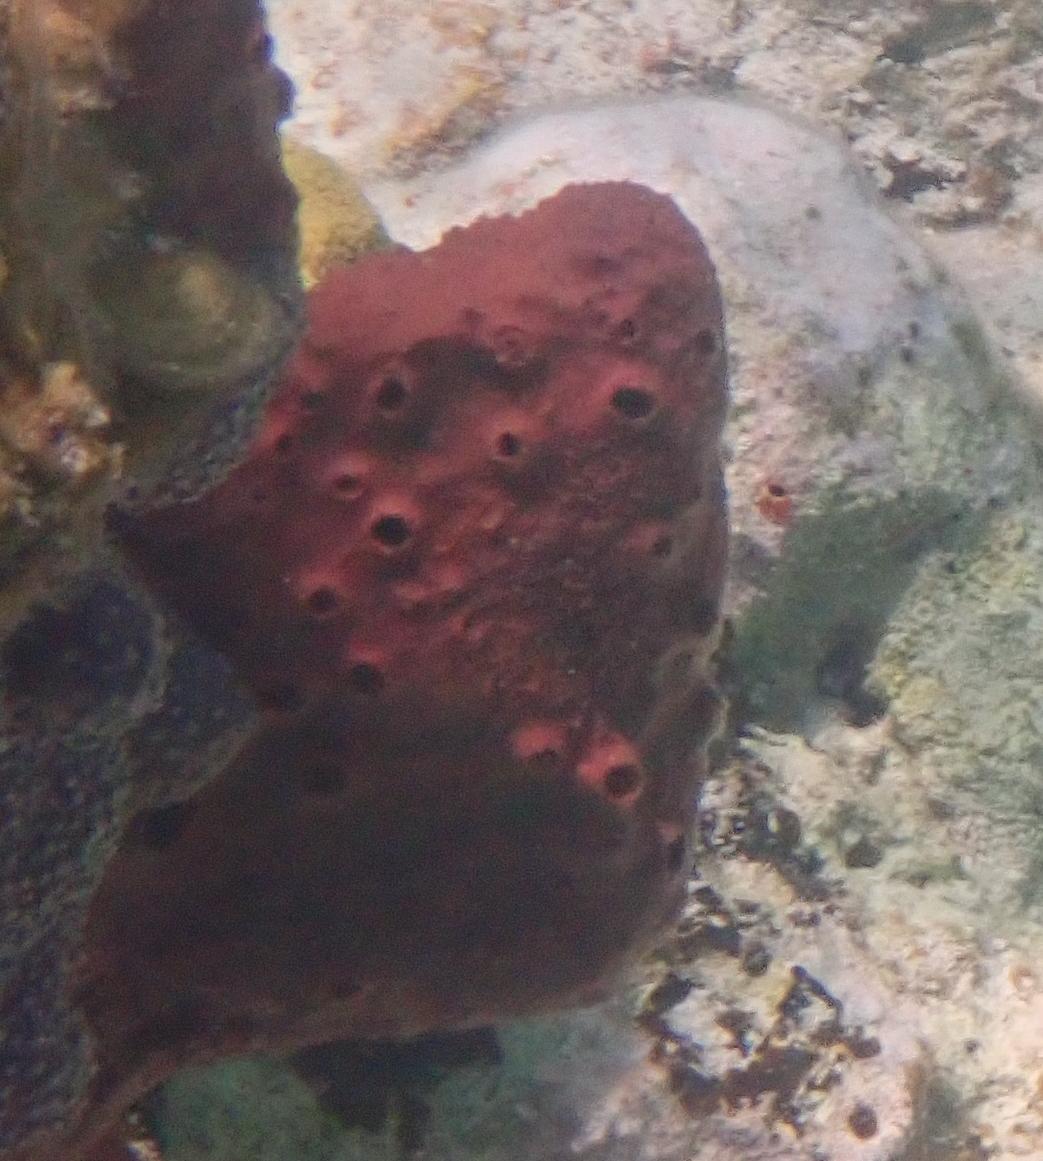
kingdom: Animalia
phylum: Porifera
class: Demospongiae
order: Haplosclerida
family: Niphatidae
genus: Amphimedon
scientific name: Amphimedon compressa
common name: Red sponge
